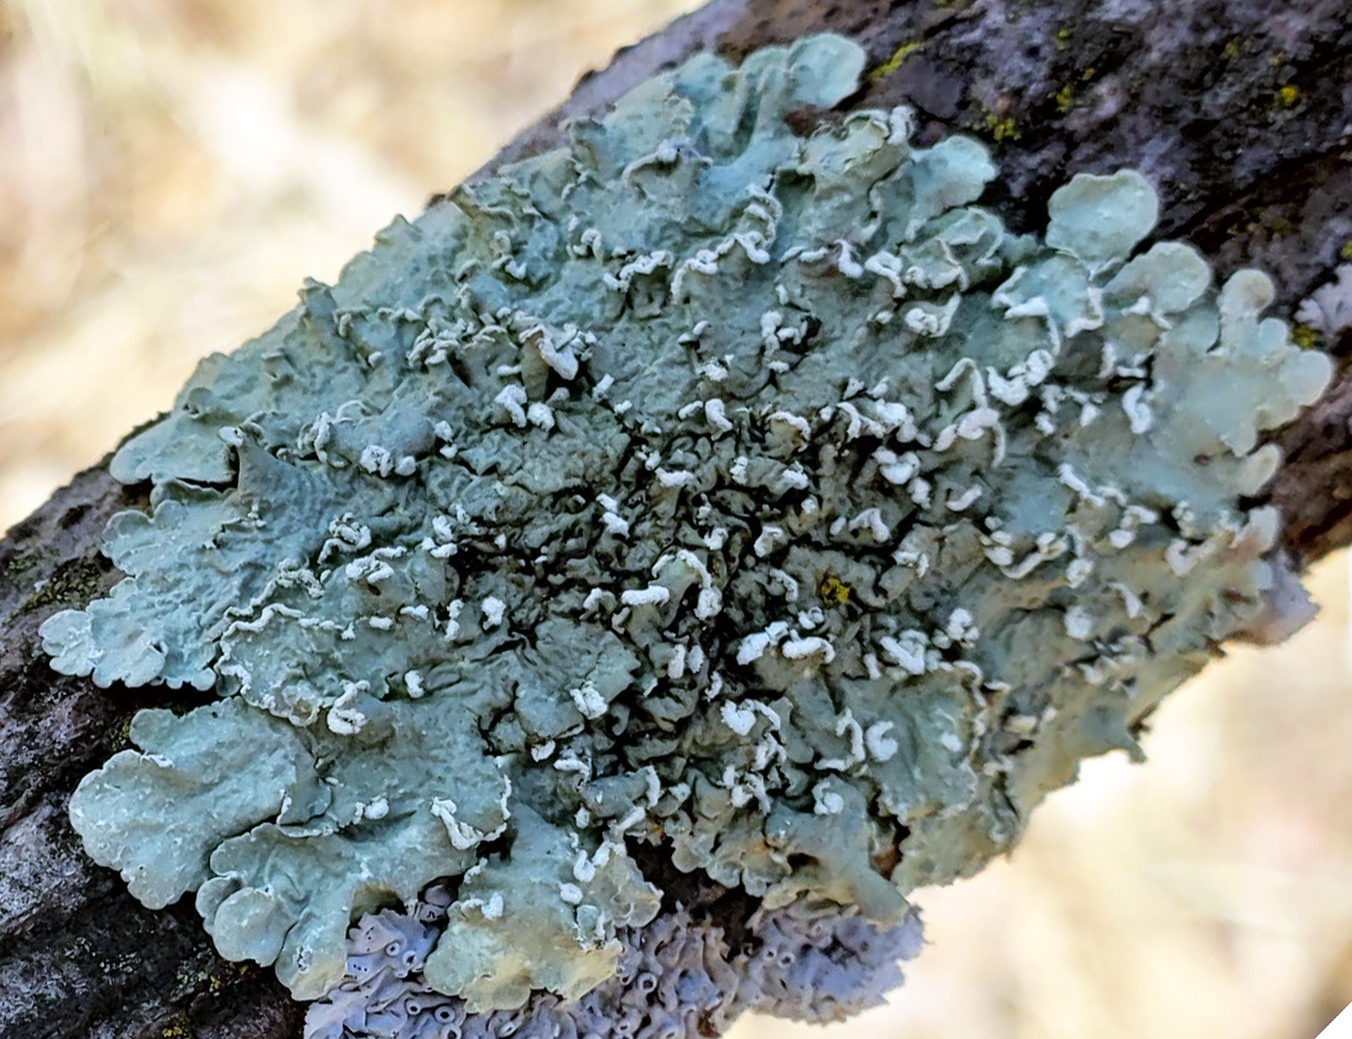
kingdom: Fungi
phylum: Ascomycota
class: Lecanoromycetes
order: Lecanorales
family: Parmeliaceae
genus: Flavopunctelia
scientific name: Flavopunctelia soredica
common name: Powder-edged speckled greenshield
